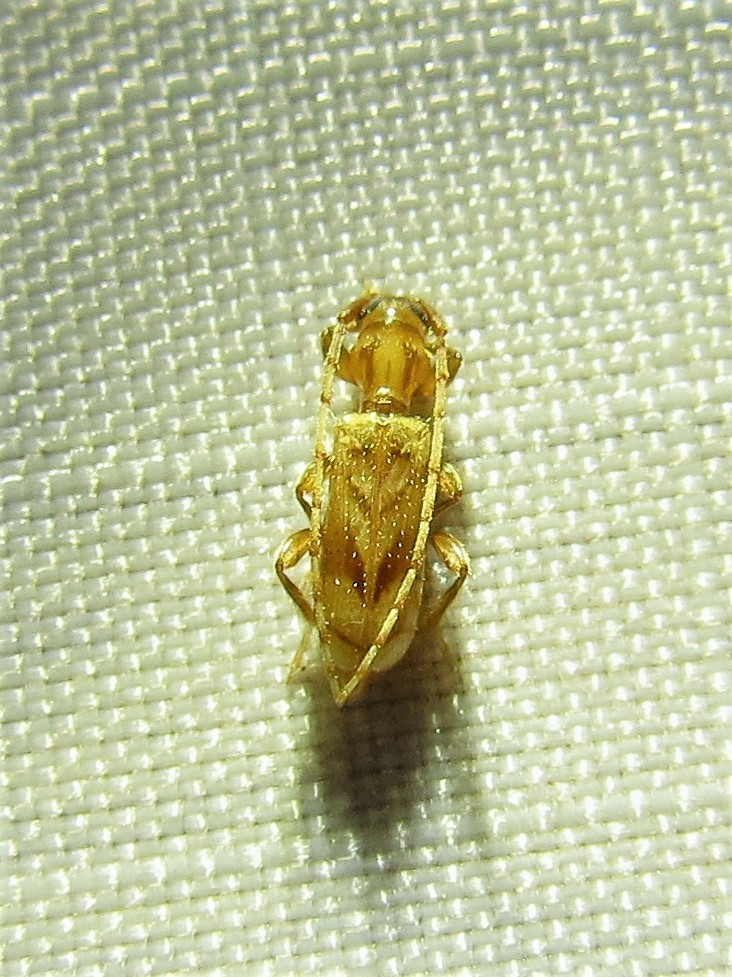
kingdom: Animalia
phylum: Arthropoda
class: Insecta
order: Coleoptera
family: Cerambycidae
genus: Obrium
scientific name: Obrium maculatum
